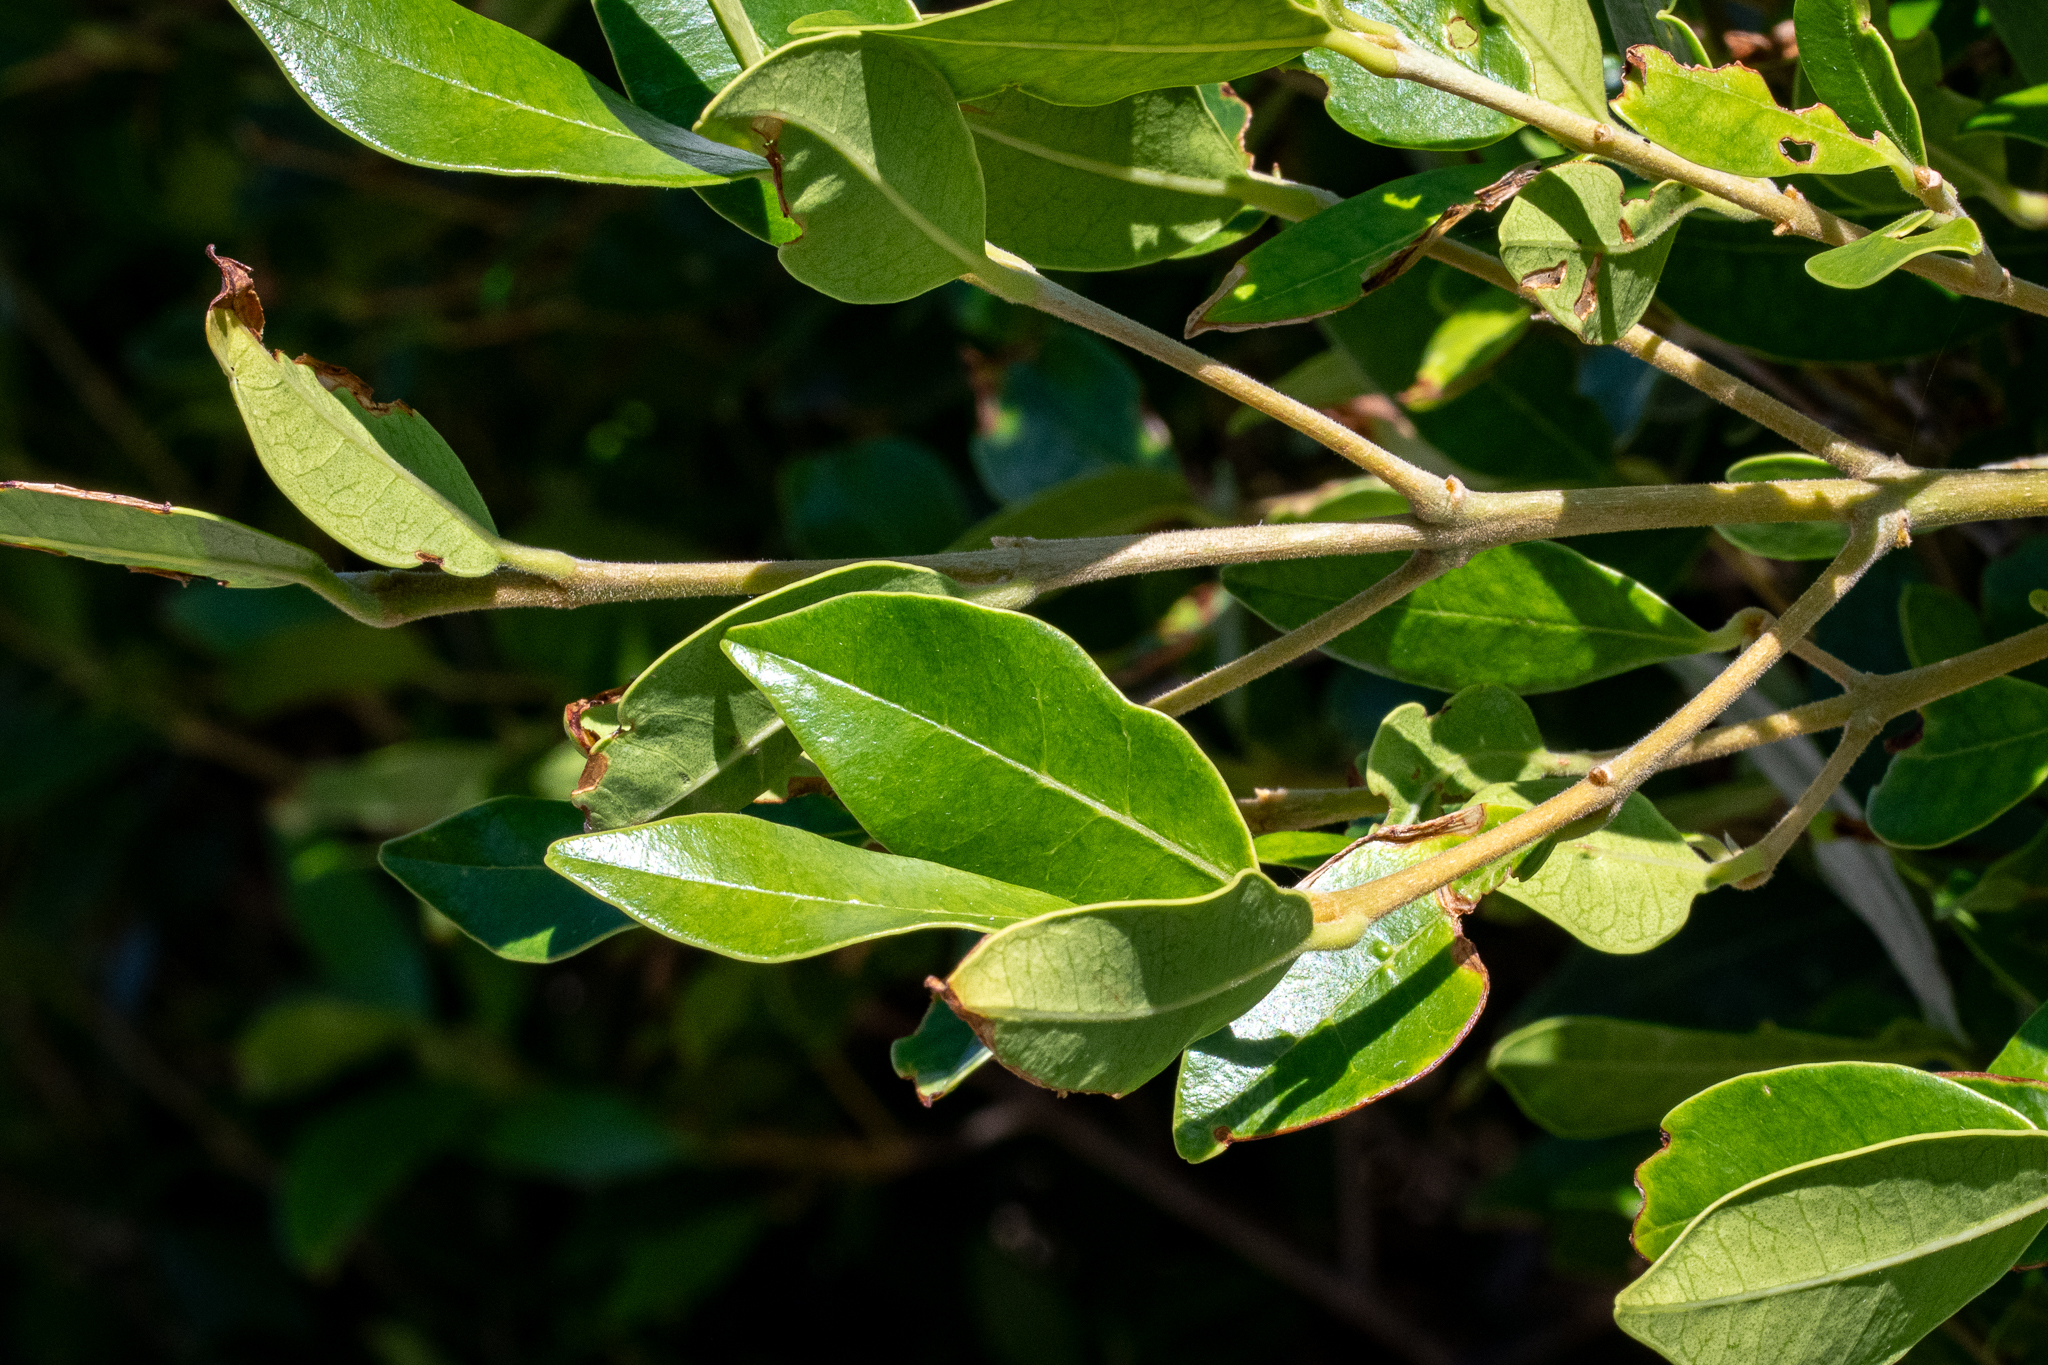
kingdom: Plantae
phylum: Tracheophyta
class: Magnoliopsida
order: Lamiales
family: Oleaceae
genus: Olea
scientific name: Olea capensis
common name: Black ironwood
